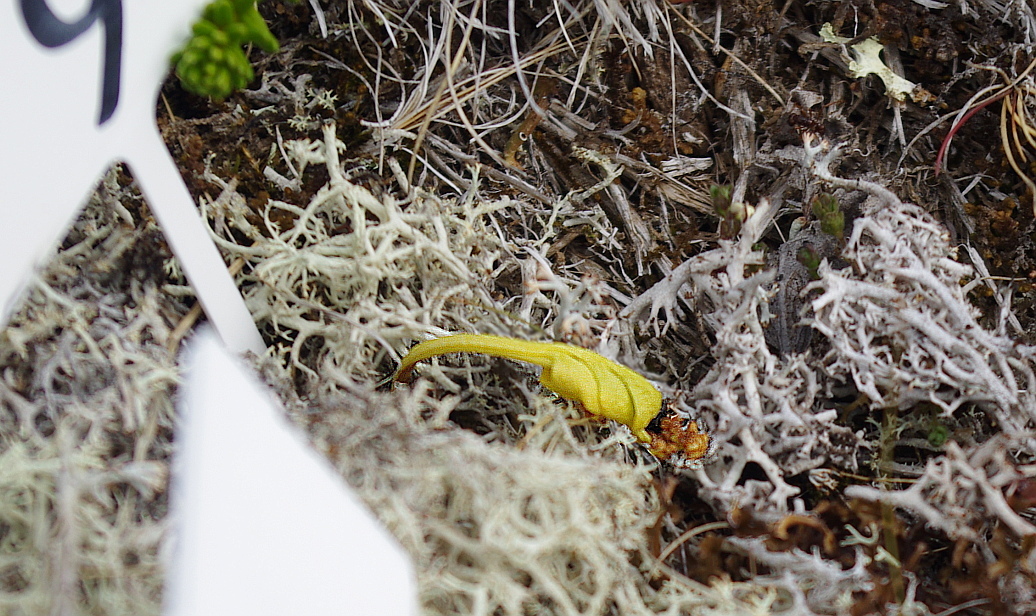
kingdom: Plantae
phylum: Tracheophyta
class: Polypodiopsida
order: Ophioglossales
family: Ophioglossaceae
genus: Botrychium
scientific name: Botrychium boreale
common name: Boreal moonwort
